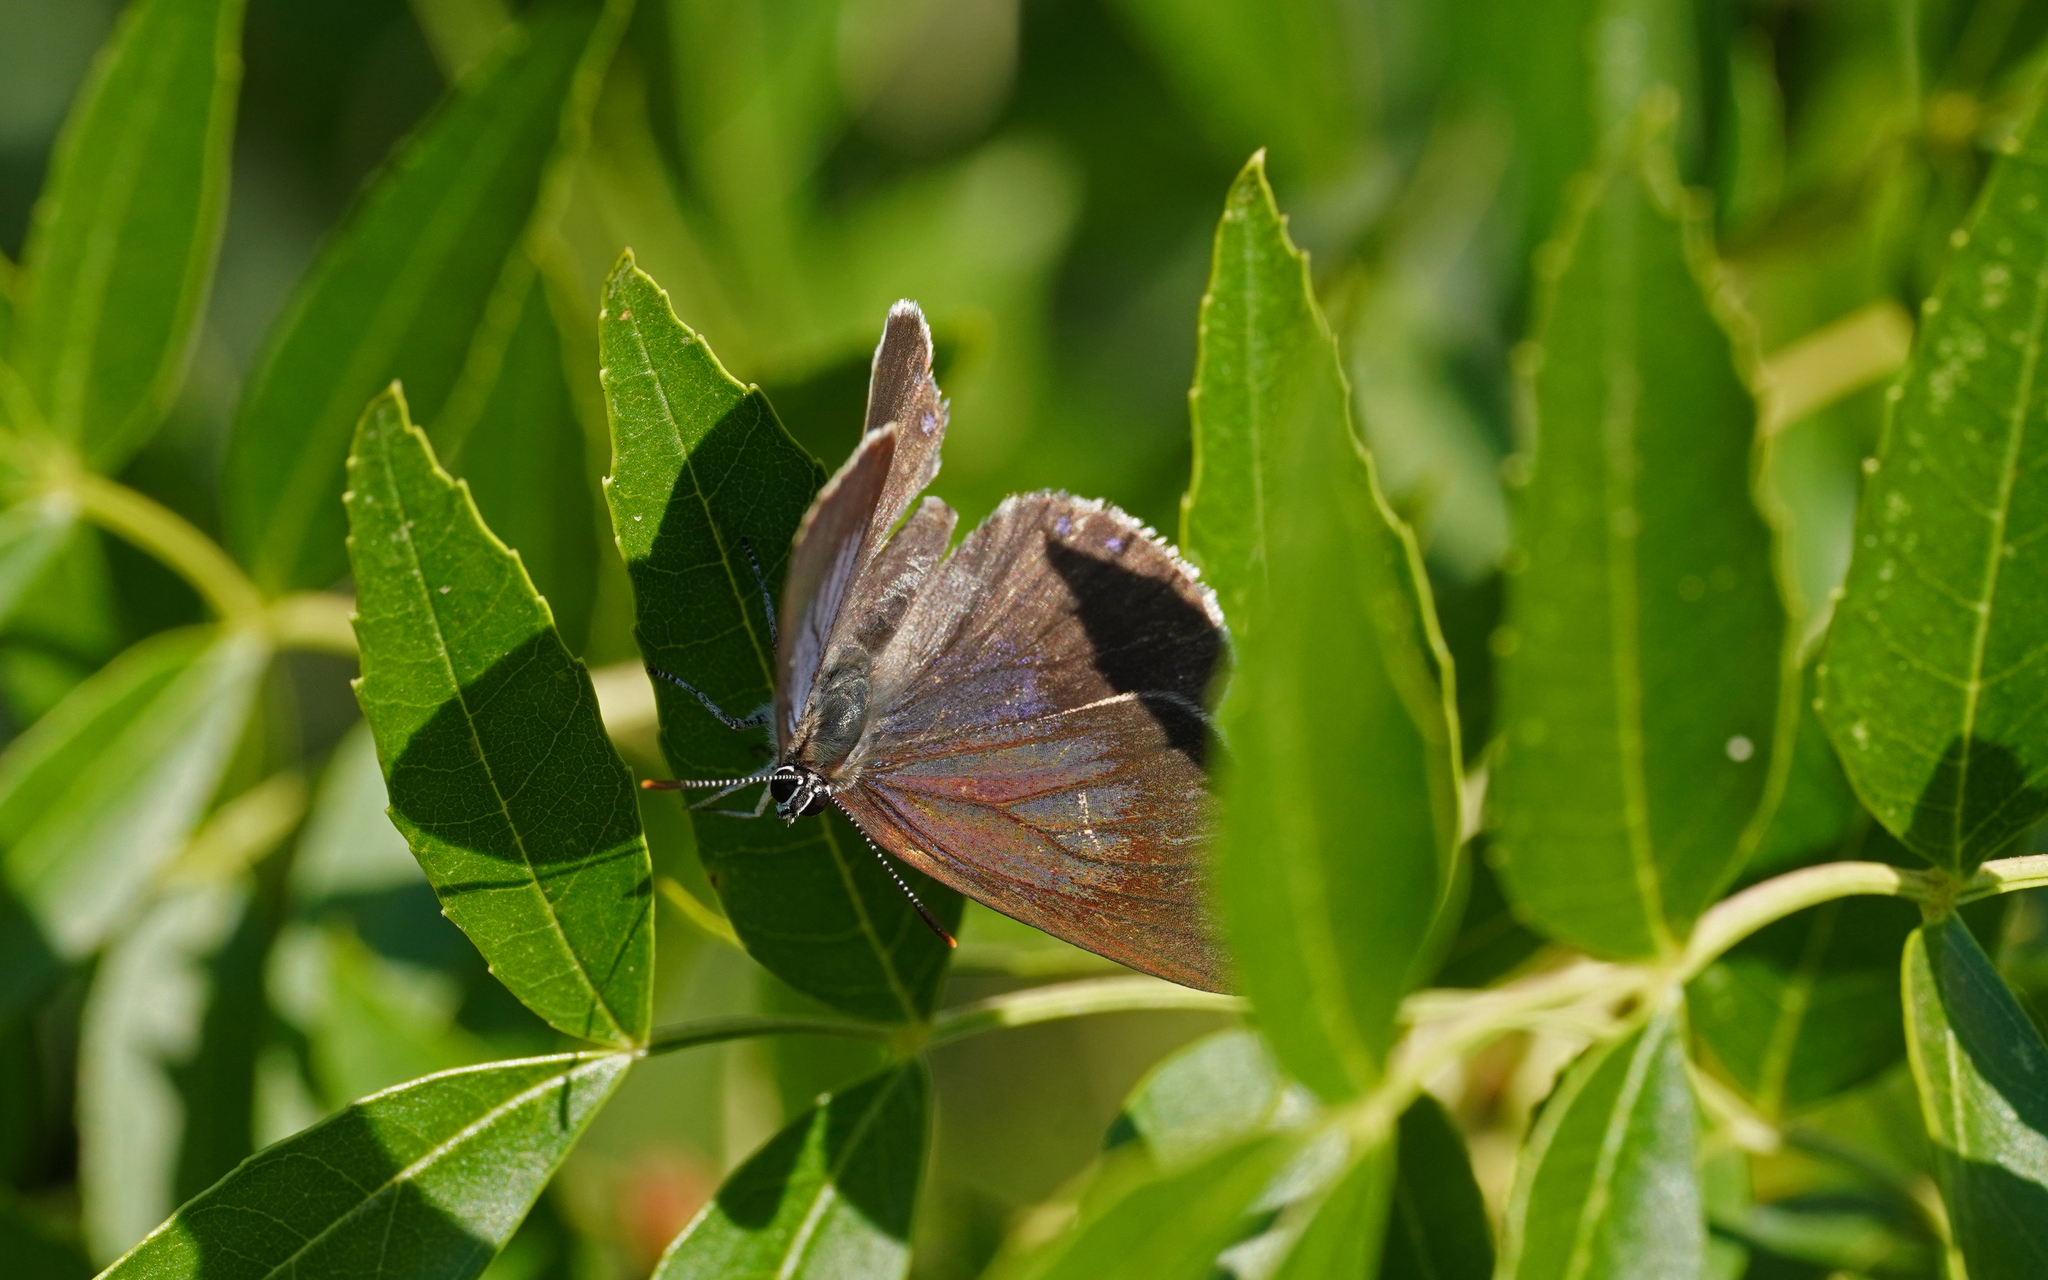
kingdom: Animalia
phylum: Arthropoda
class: Insecta
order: Lepidoptera
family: Lycaenidae
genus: Laeosopis
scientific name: Laeosopis roboris
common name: Spanish purple hairstreak
